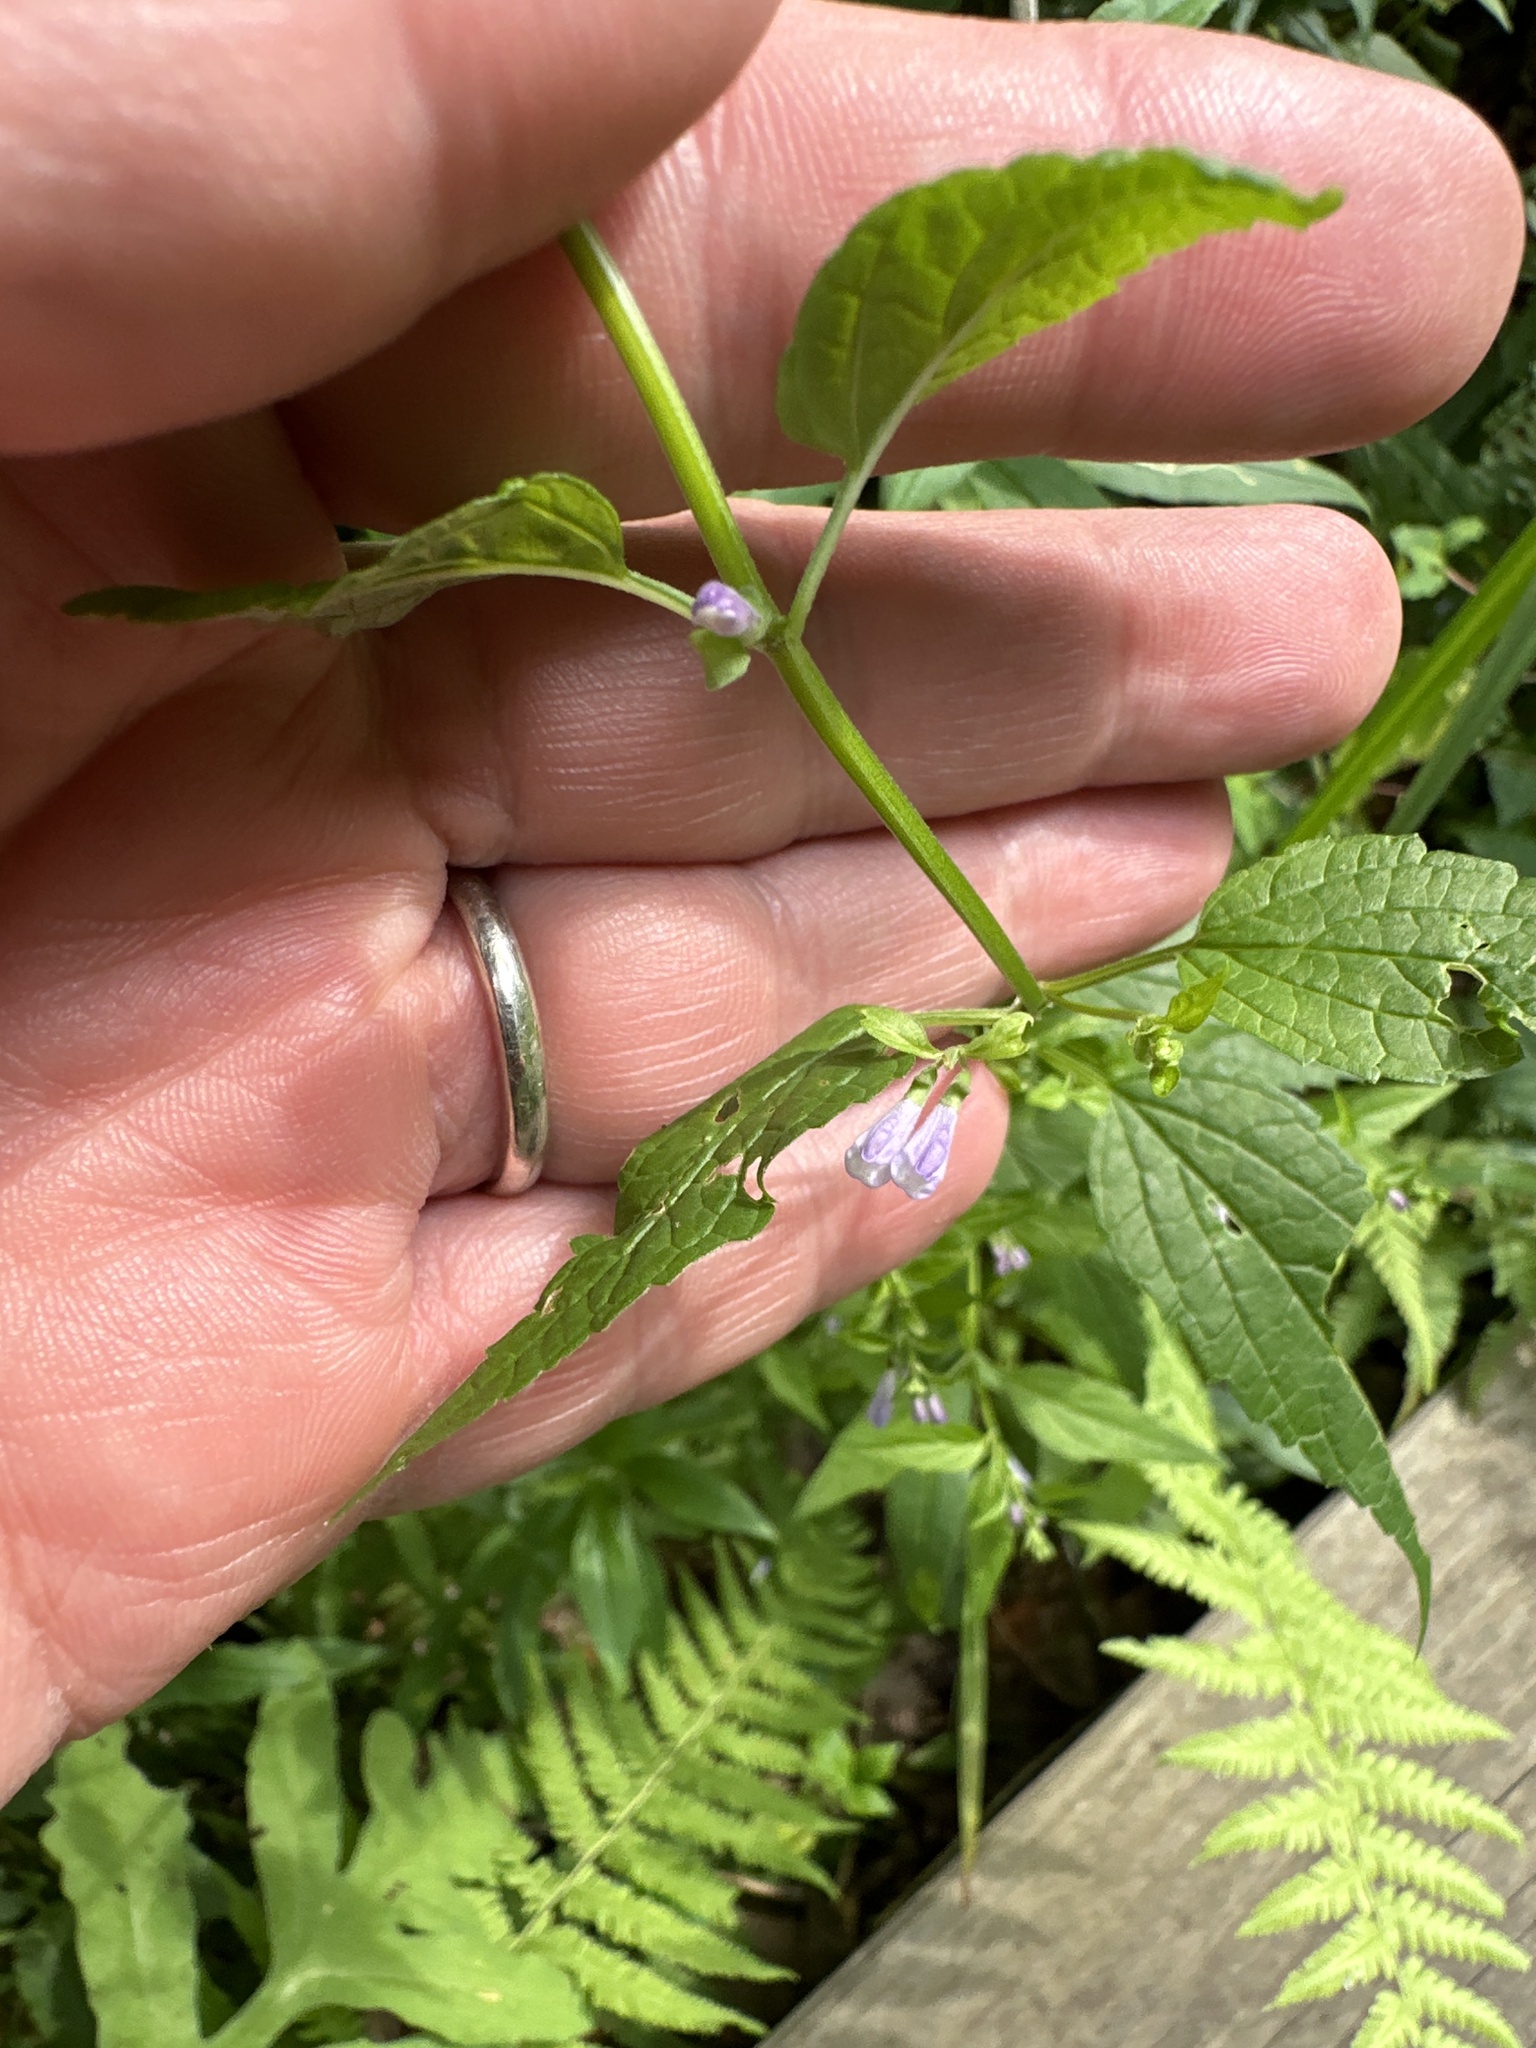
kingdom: Plantae
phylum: Tracheophyta
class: Magnoliopsida
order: Lamiales
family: Lamiaceae
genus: Scutellaria
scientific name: Scutellaria galericulata
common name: Skullcap
